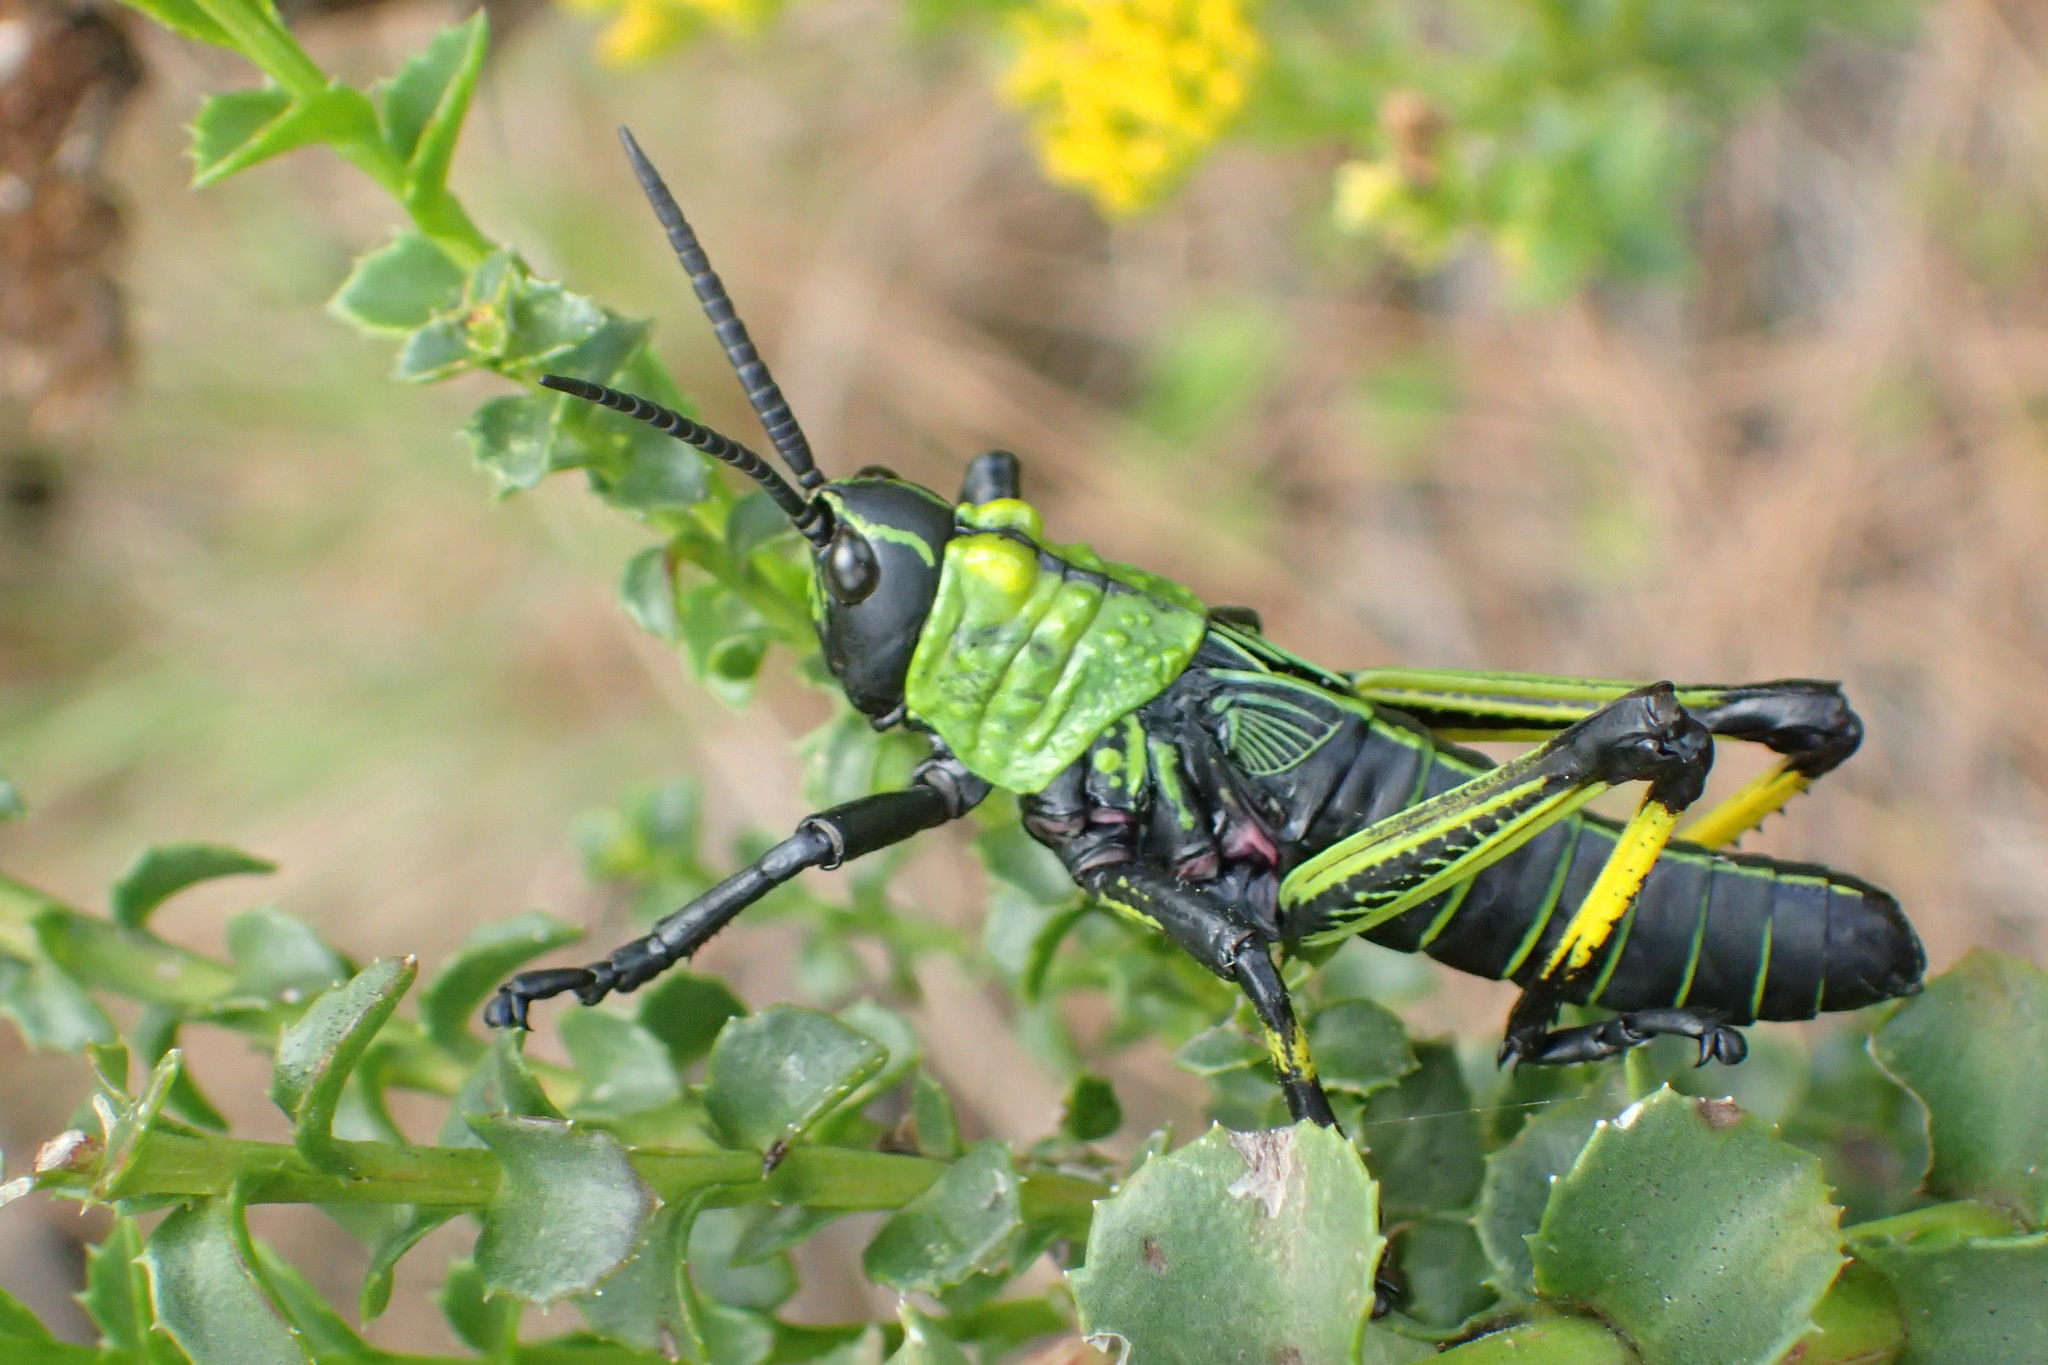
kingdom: Animalia
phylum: Arthropoda
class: Insecta
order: Orthoptera
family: Pyrgomorphidae
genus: Phymateus
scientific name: Phymateus leprosus
